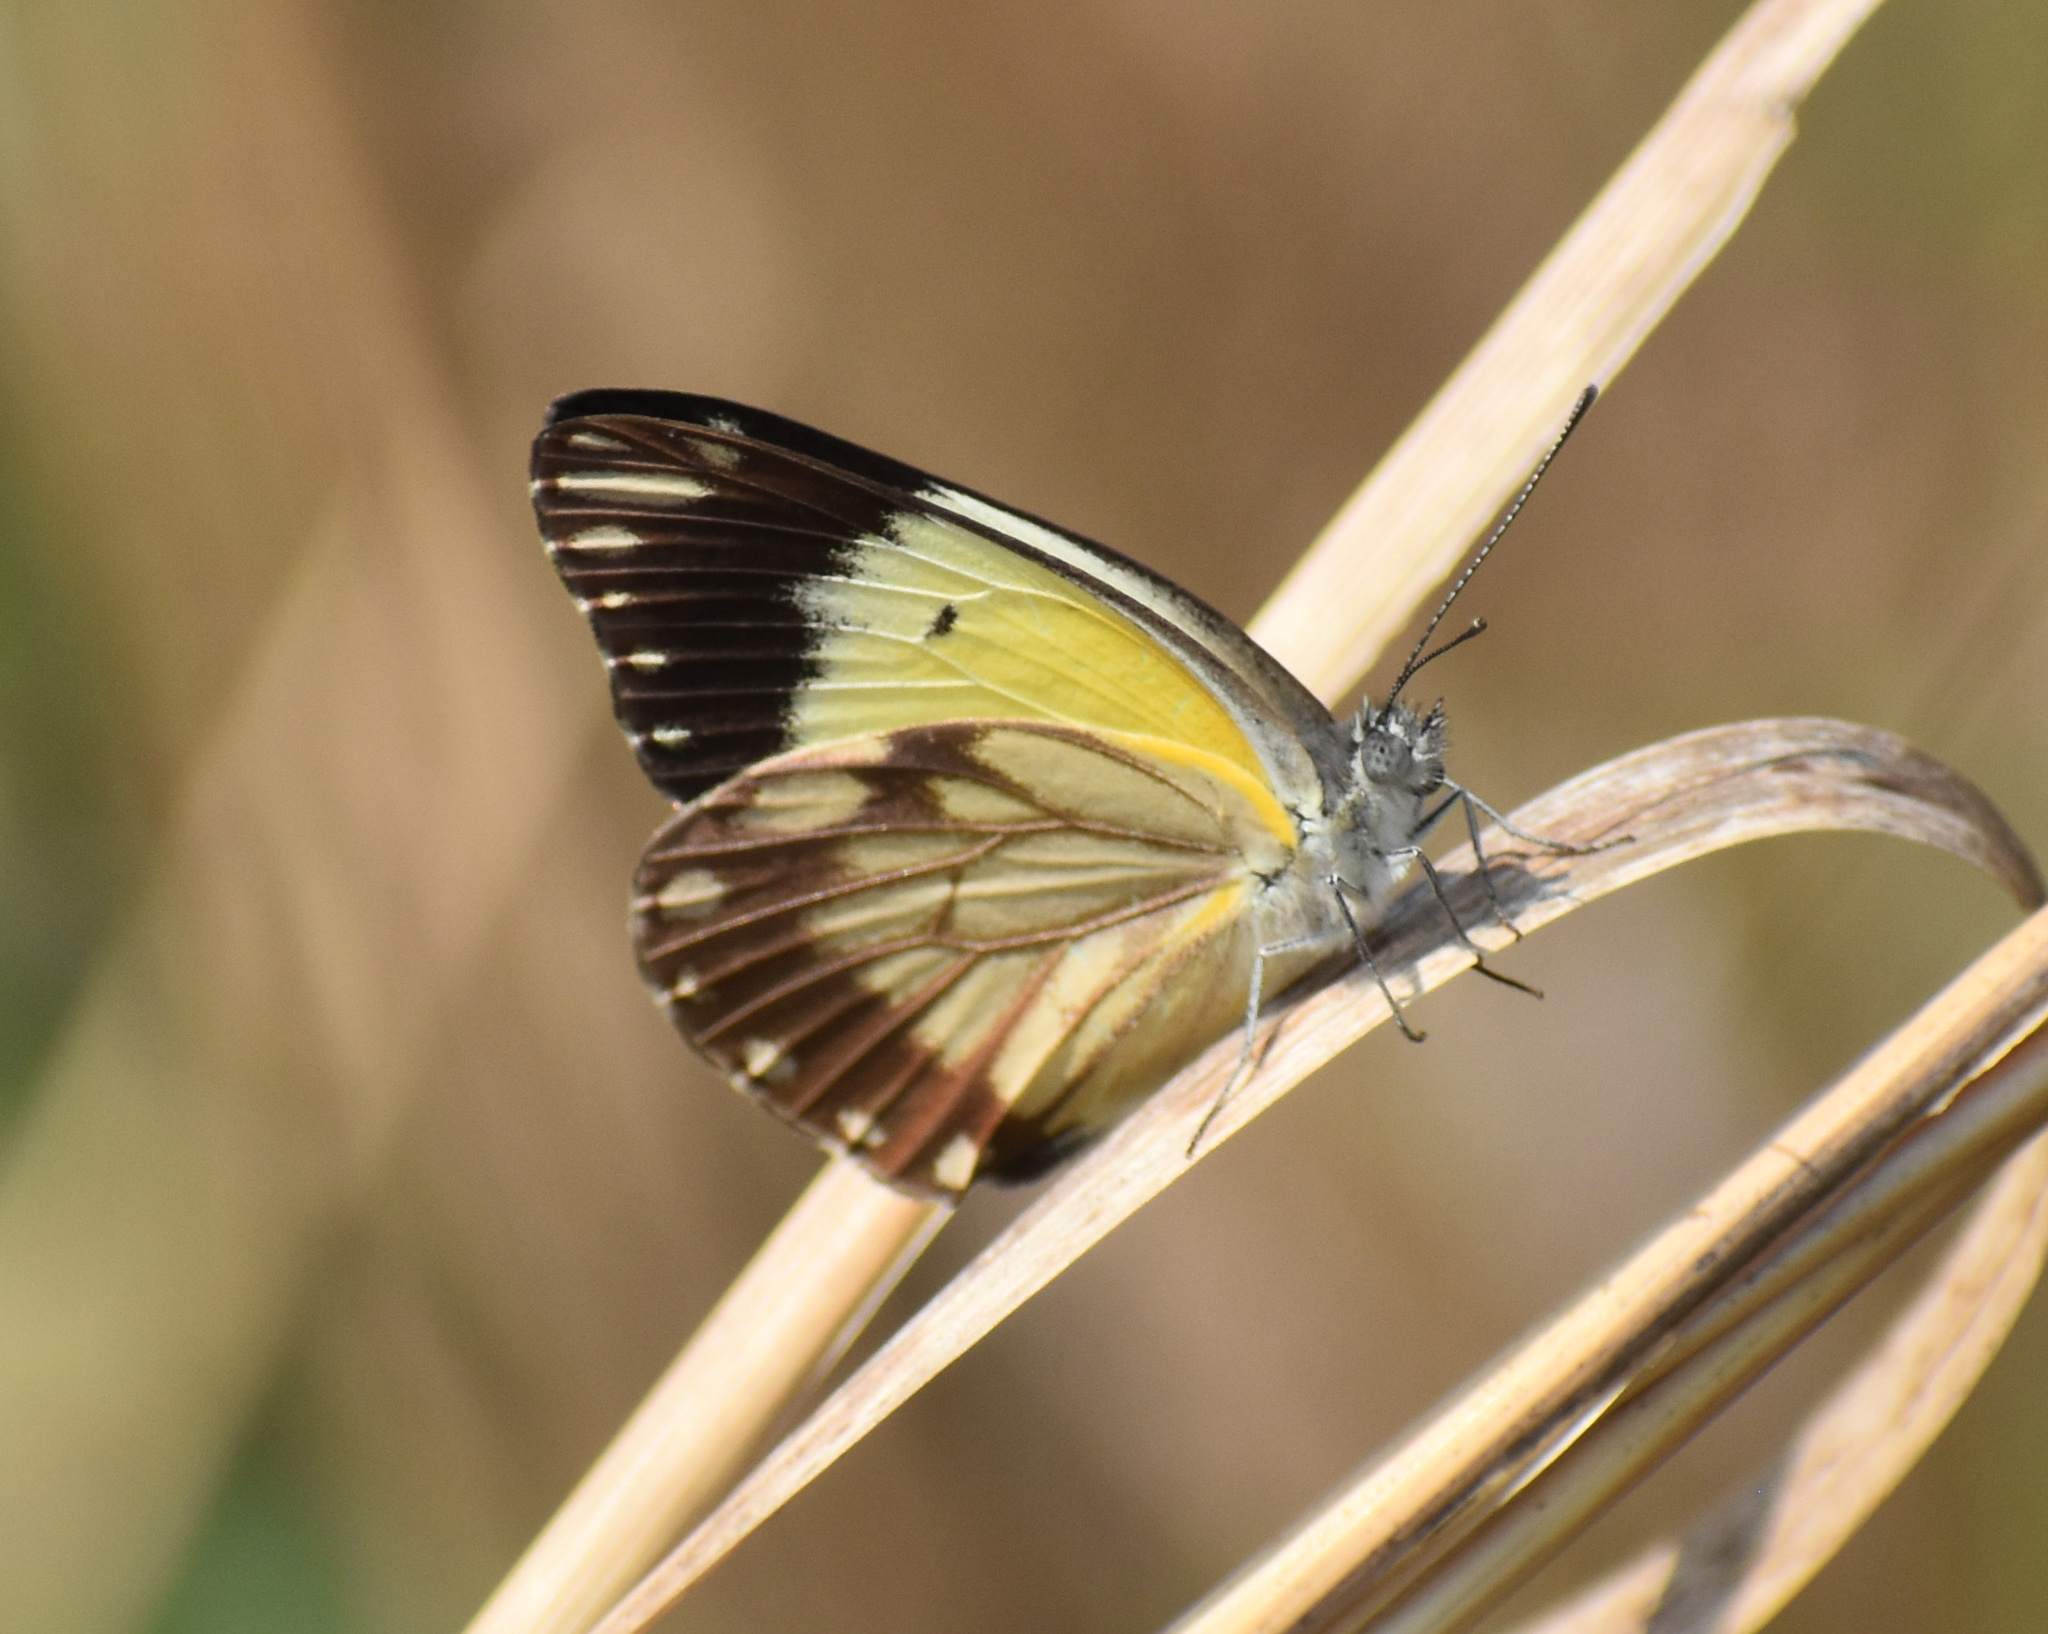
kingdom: Animalia
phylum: Arthropoda
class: Insecta
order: Lepidoptera
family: Pieridae
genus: Belenois
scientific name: Belenois creona
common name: African caper white
